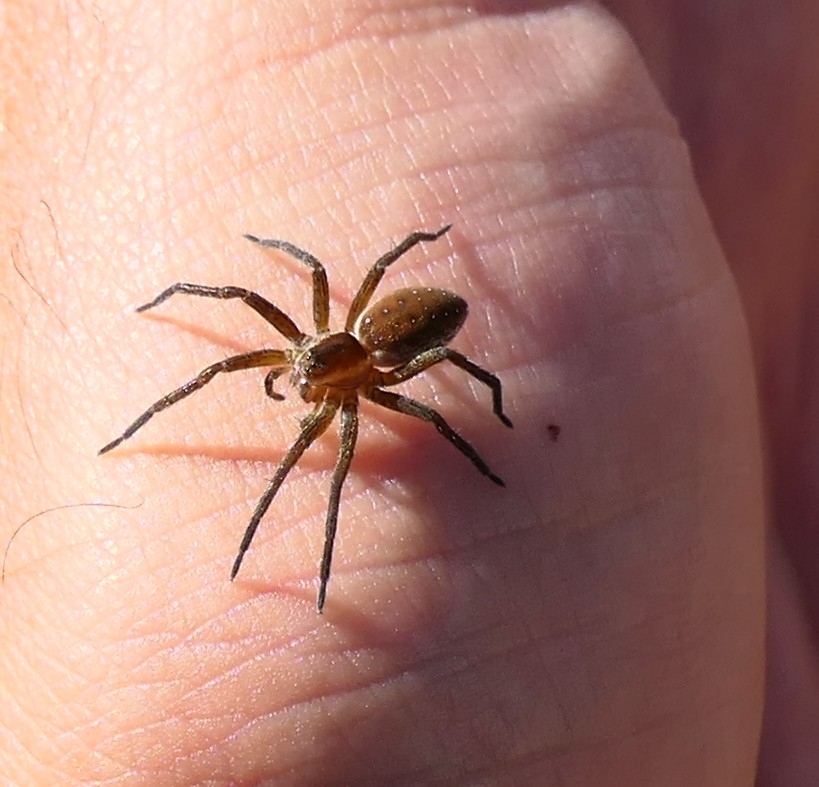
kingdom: Animalia
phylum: Arthropoda
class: Arachnida
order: Araneae
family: Pisauridae
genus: Dolomedes
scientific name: Dolomedes
